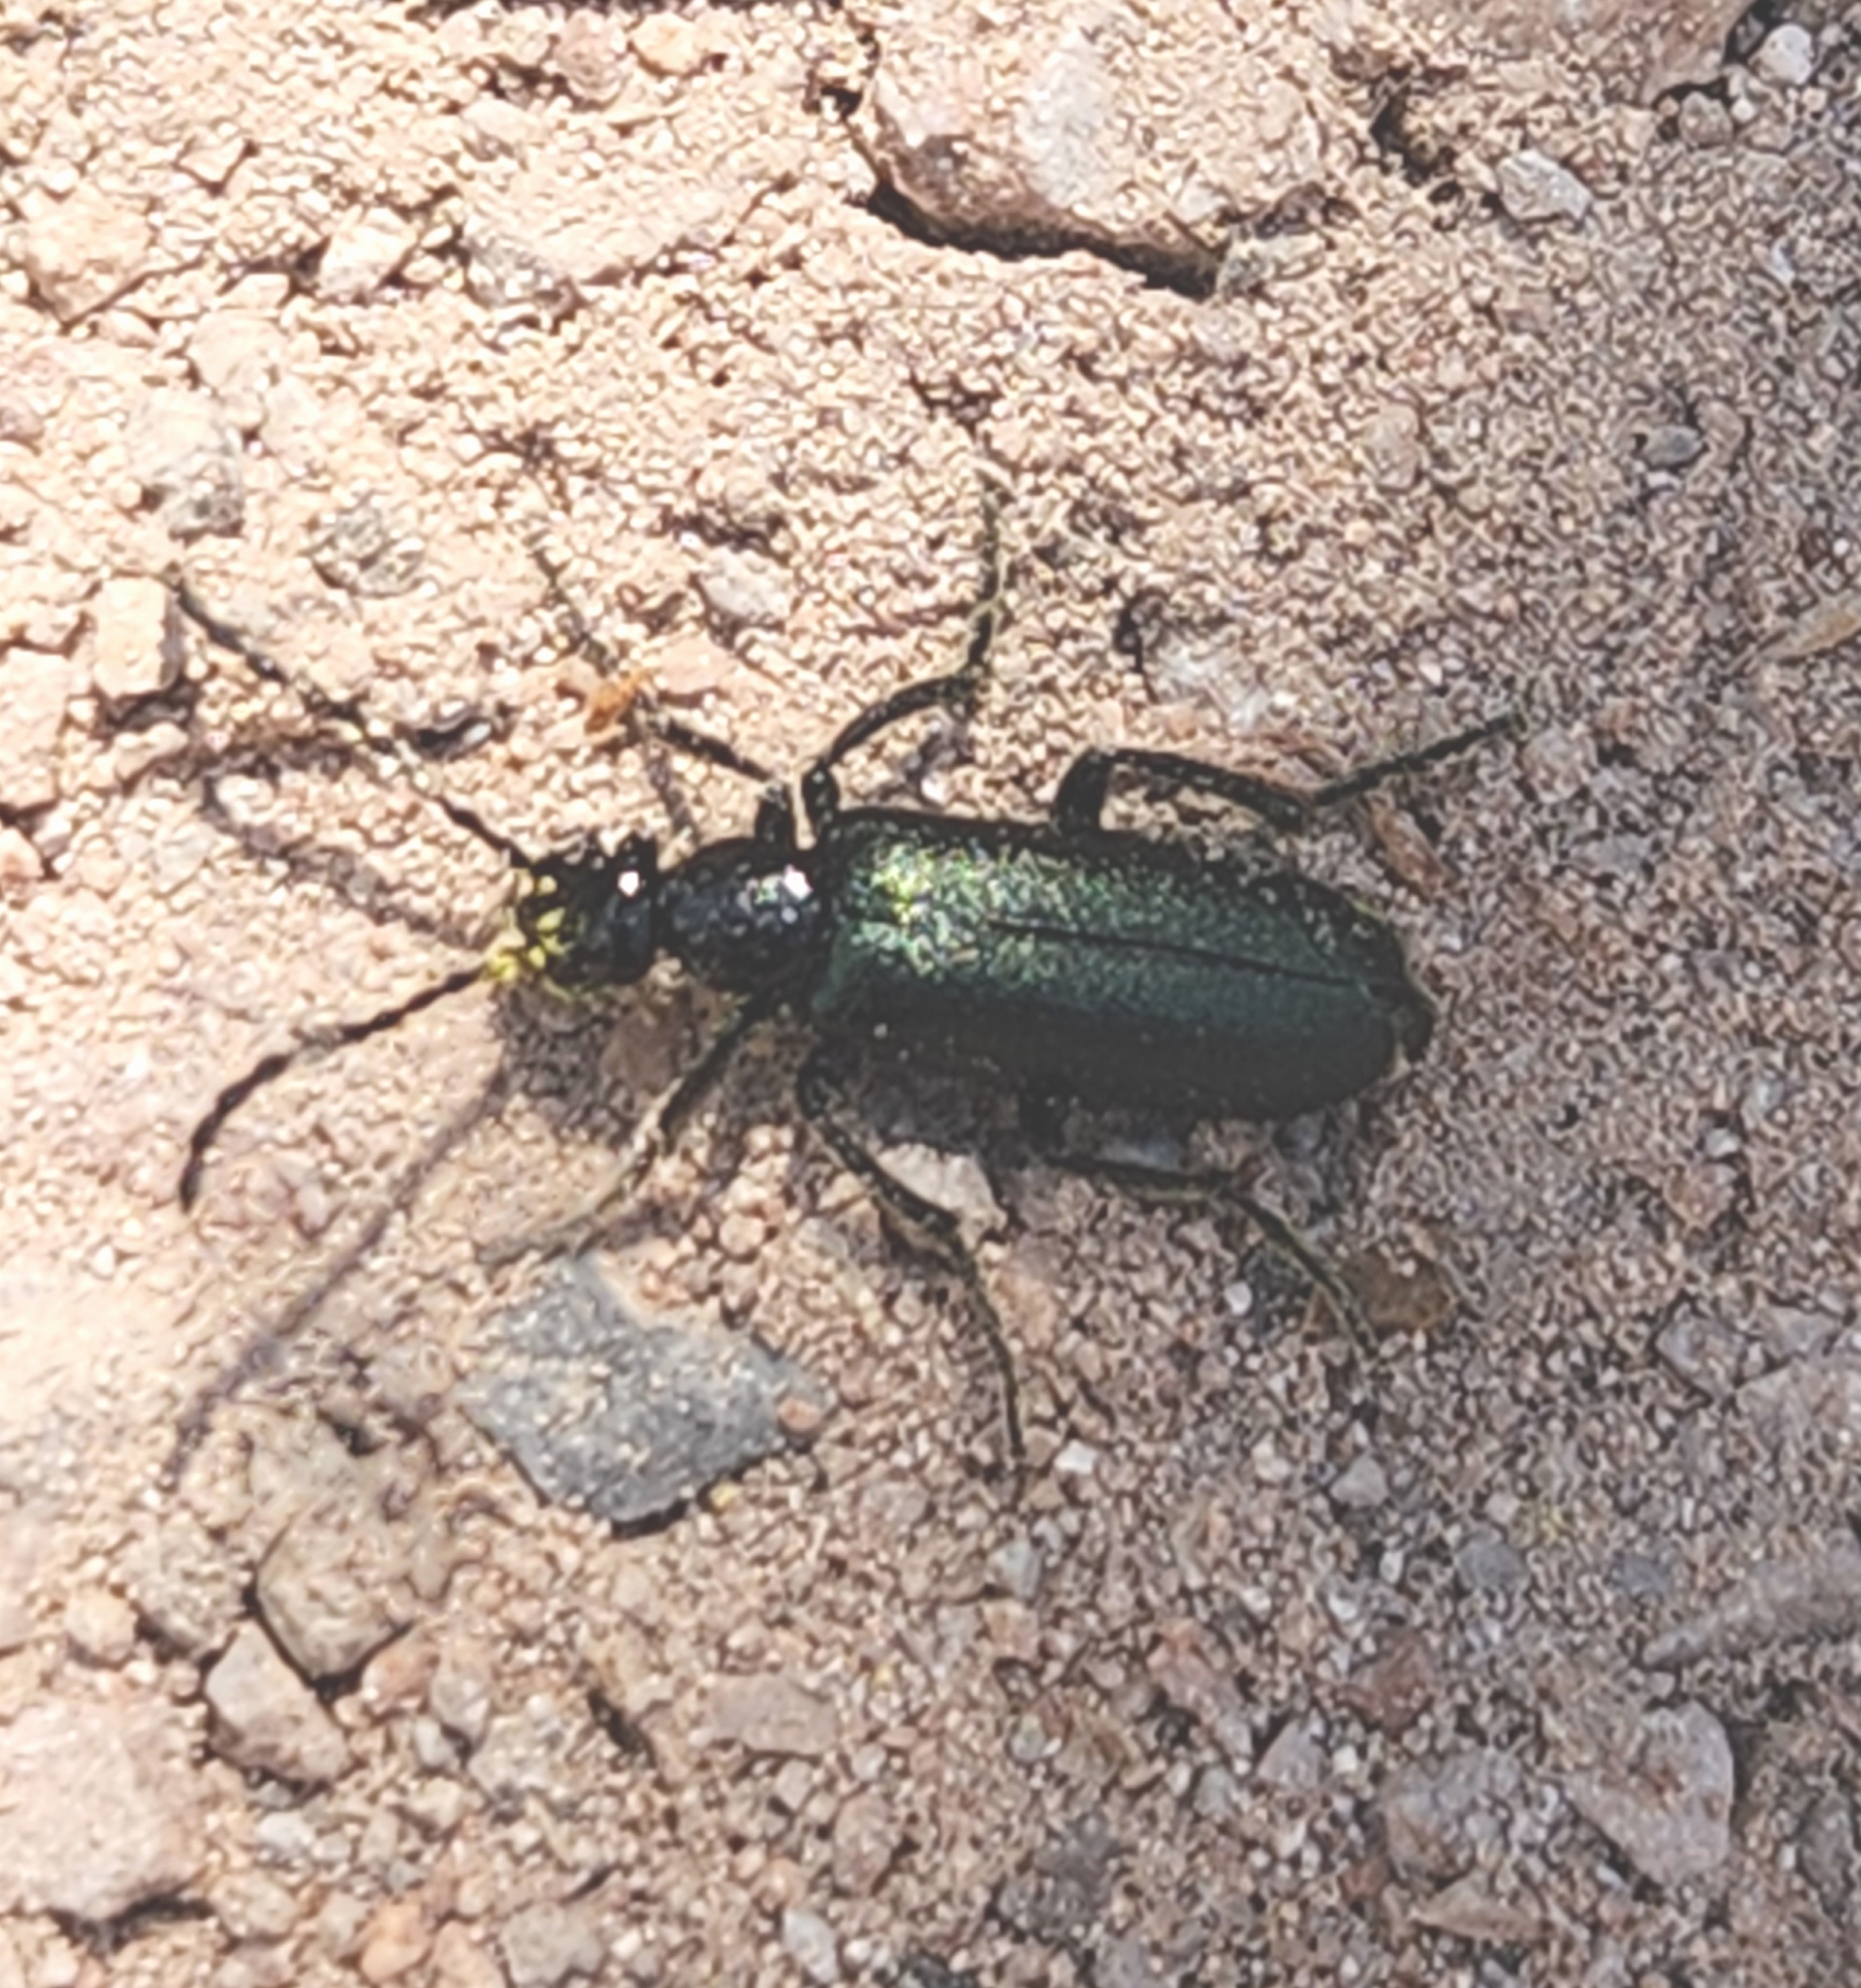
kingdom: Animalia
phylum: Arthropoda
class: Insecta
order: Coleoptera
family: Meloidae
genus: Lytta
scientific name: Lytta stygica
